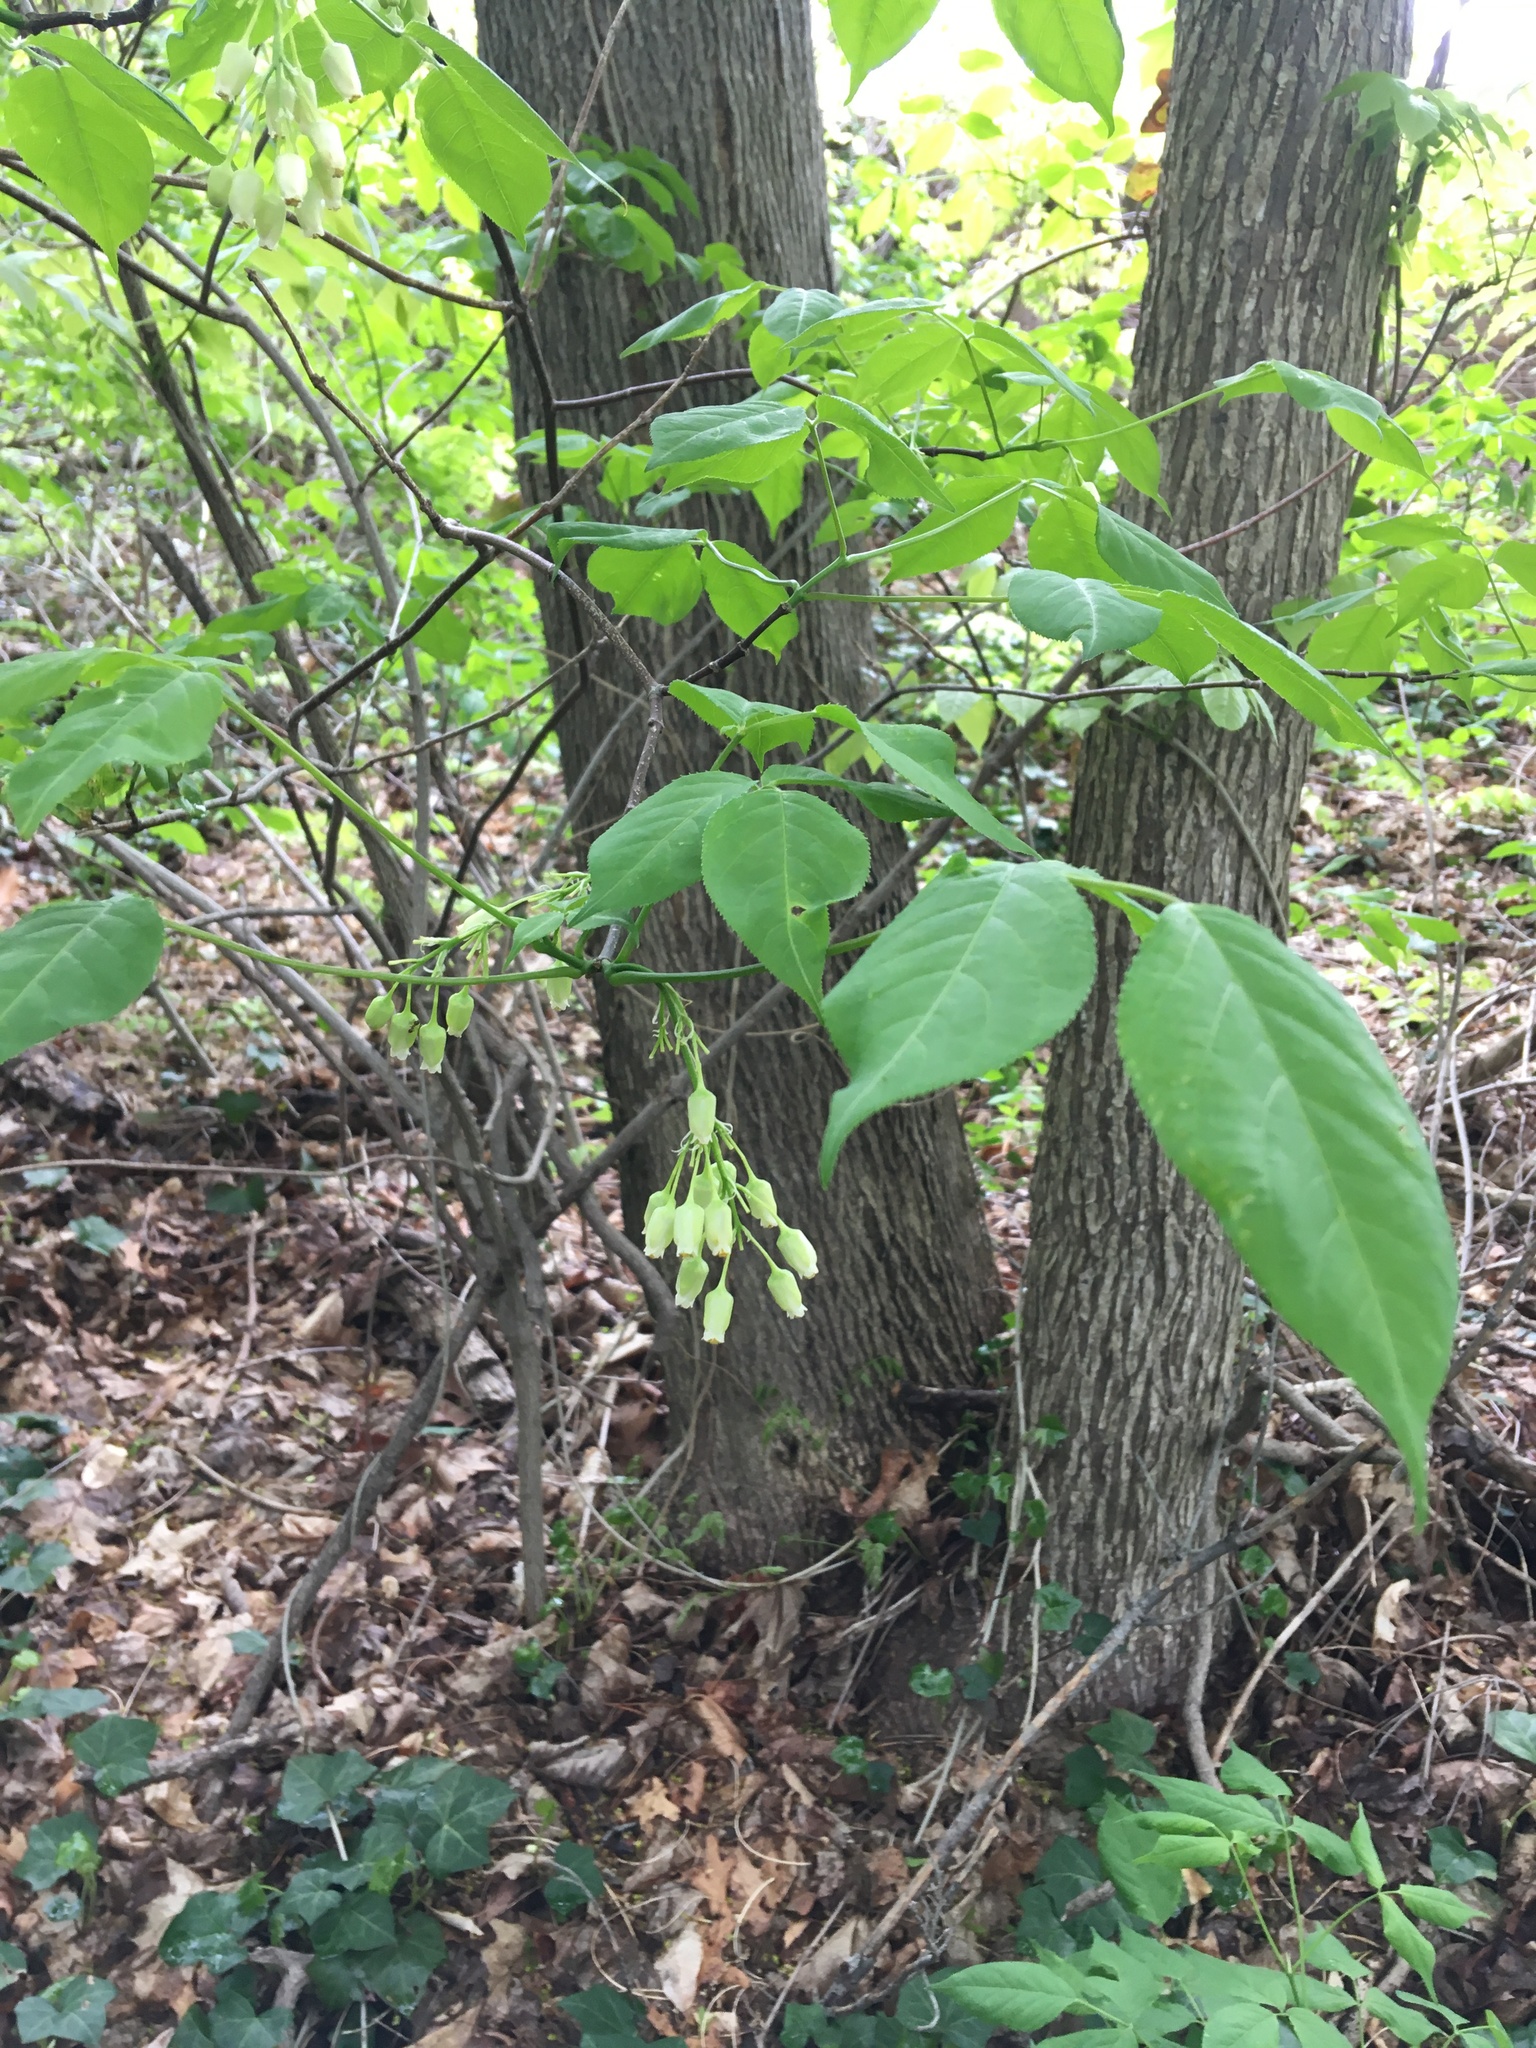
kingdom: Plantae
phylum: Tracheophyta
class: Magnoliopsida
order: Crossosomatales
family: Staphyleaceae
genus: Staphylea
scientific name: Staphylea trifolia
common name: American bladdernut
